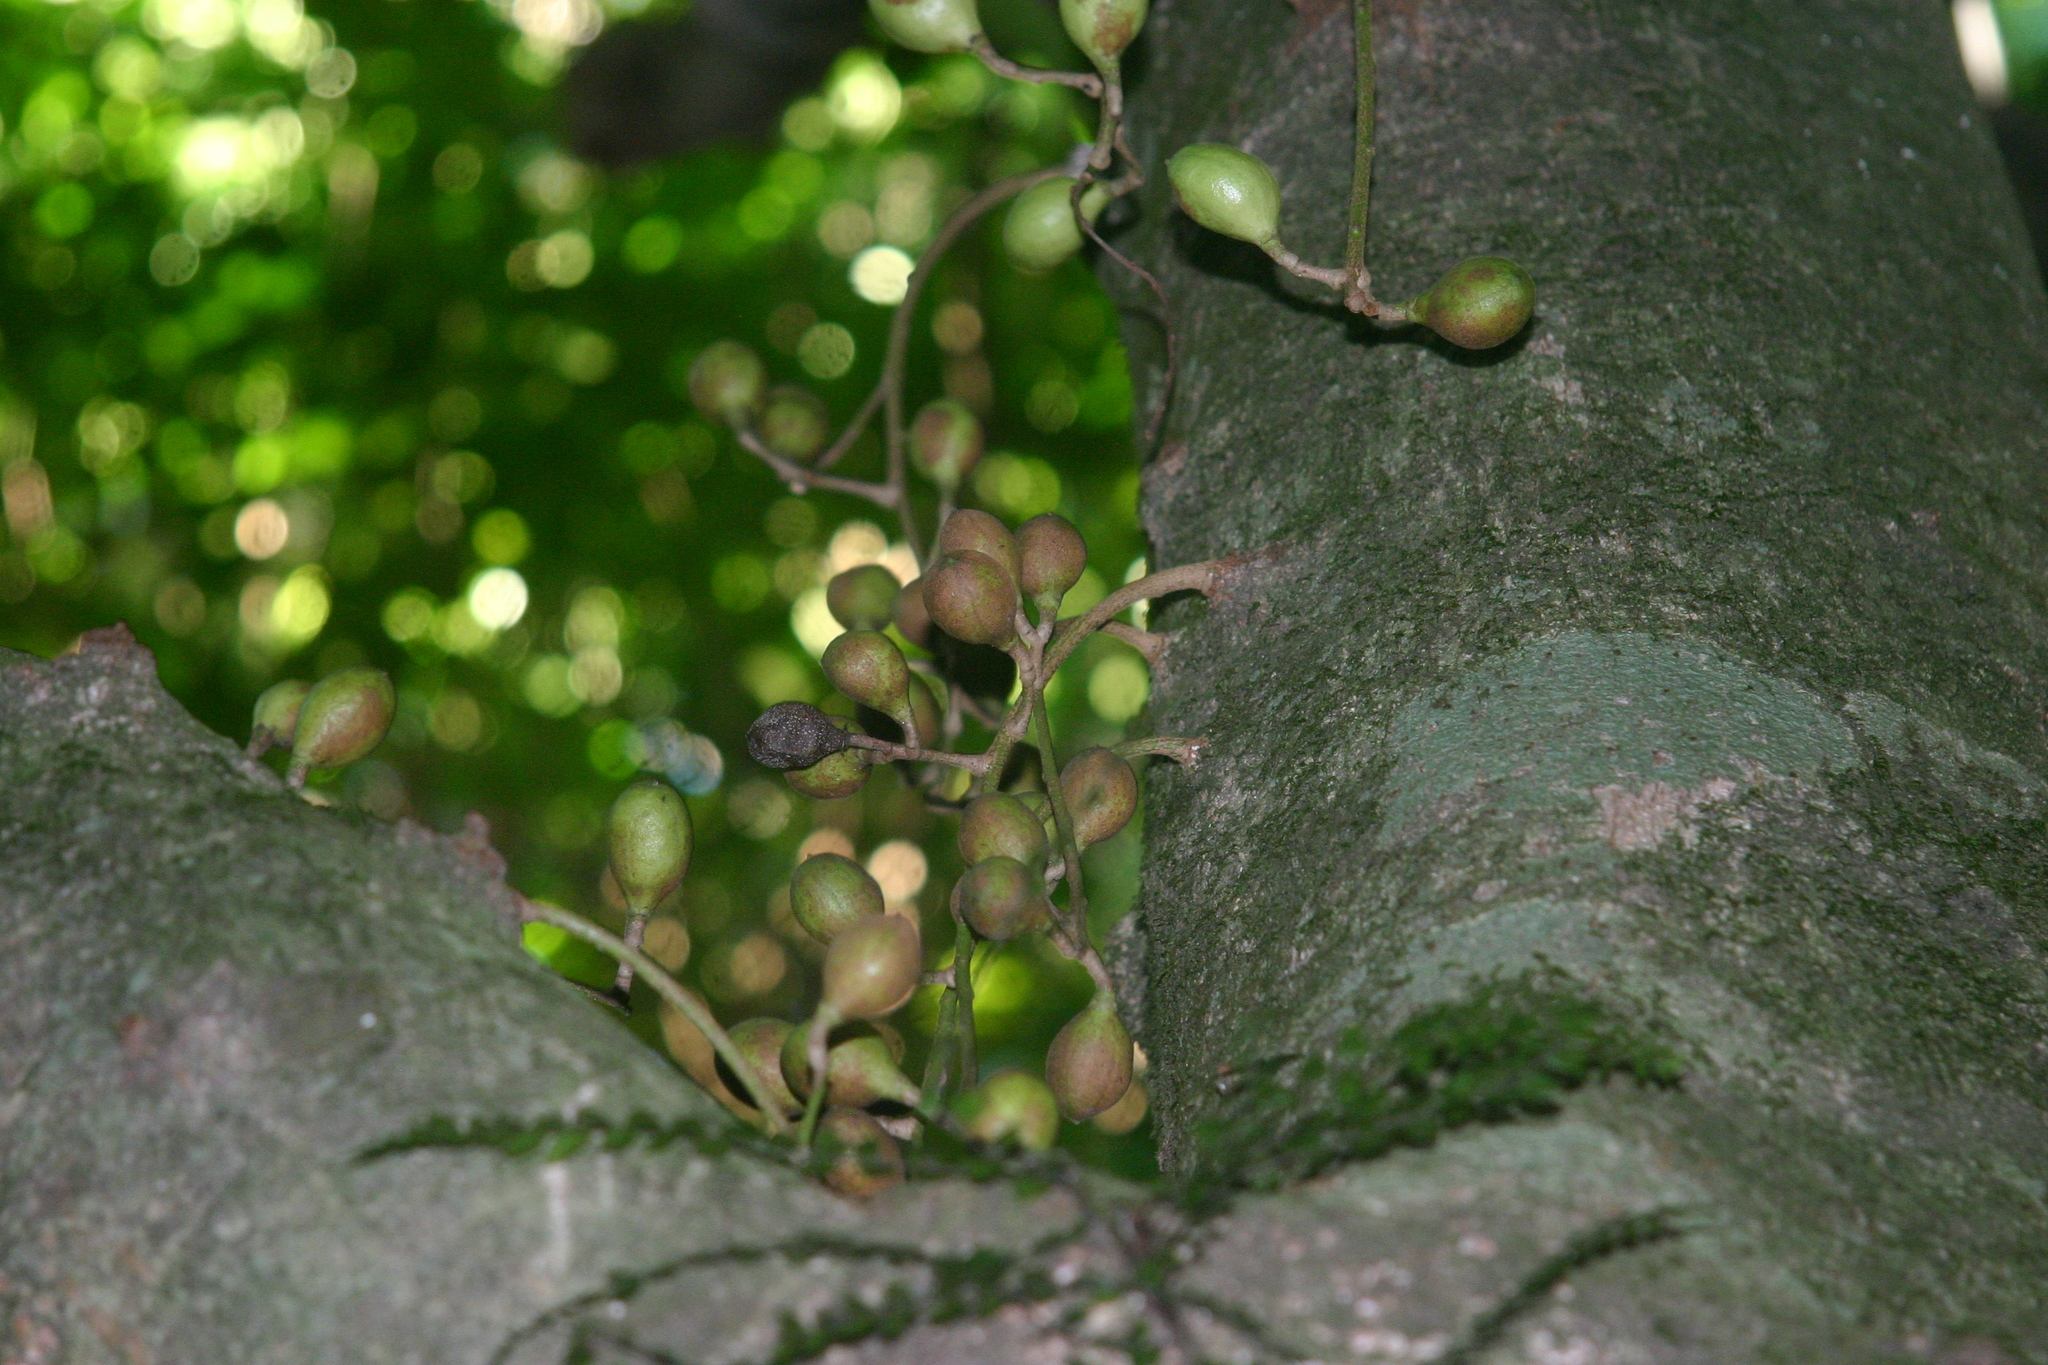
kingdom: Plantae
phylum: Tracheophyta
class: Magnoliopsida
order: Sapindales
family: Meliaceae
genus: Didymocheton
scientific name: Didymocheton spectabilis
